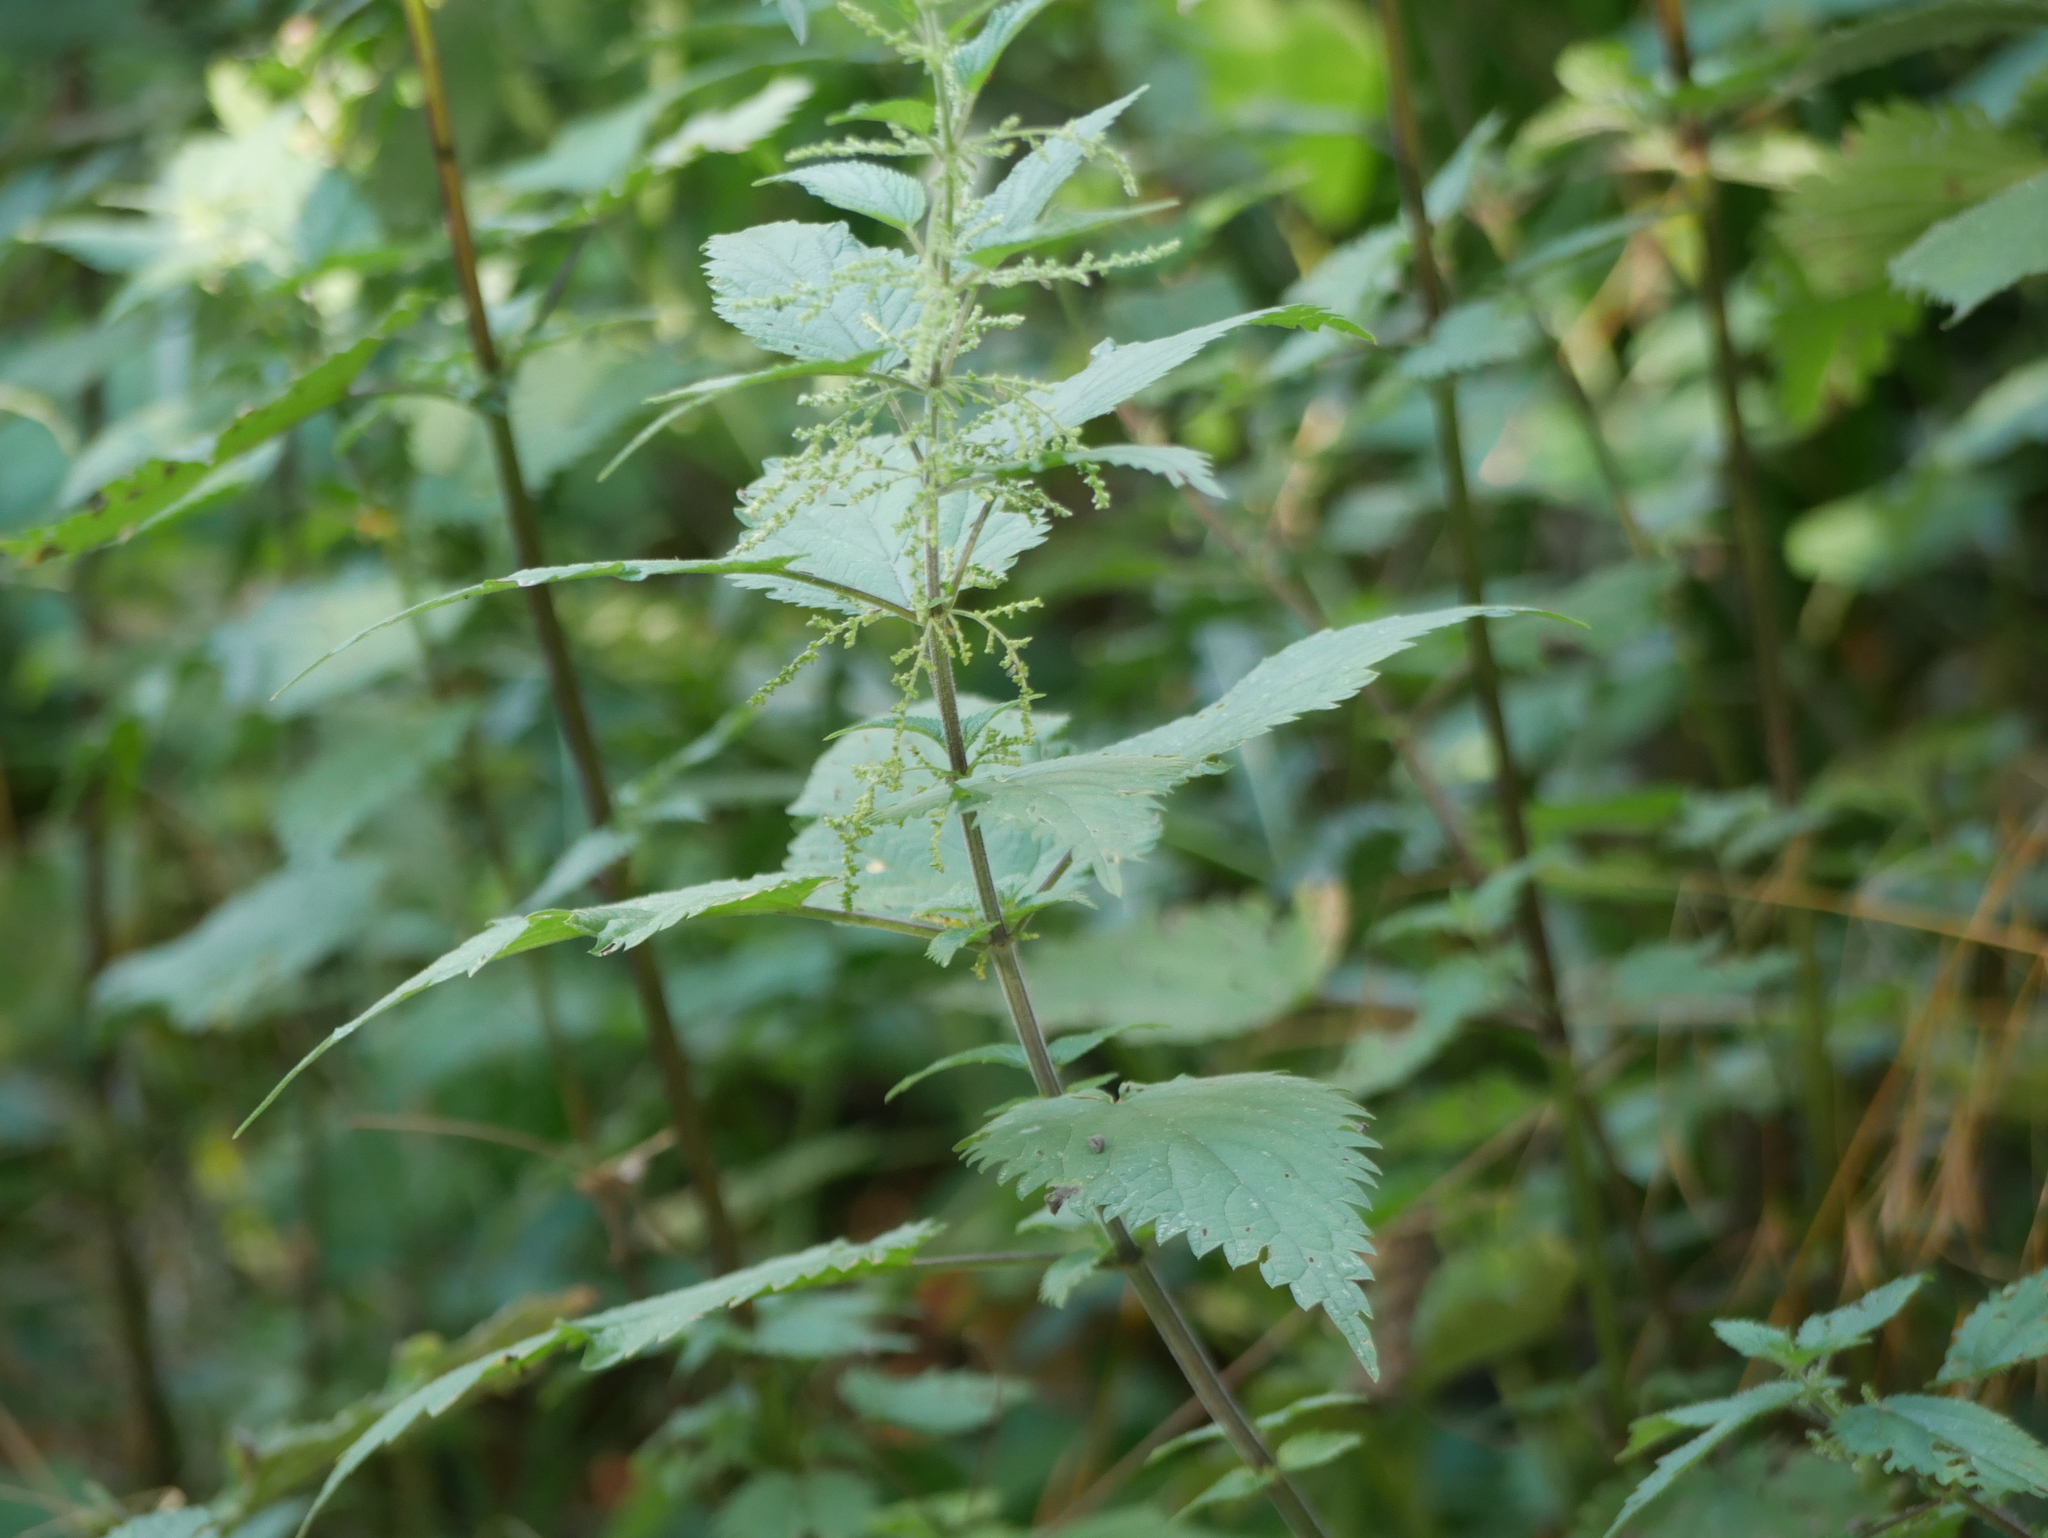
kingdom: Plantae
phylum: Tracheophyta
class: Magnoliopsida
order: Rosales
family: Urticaceae
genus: Urtica
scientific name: Urtica dioica
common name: Common nettle
